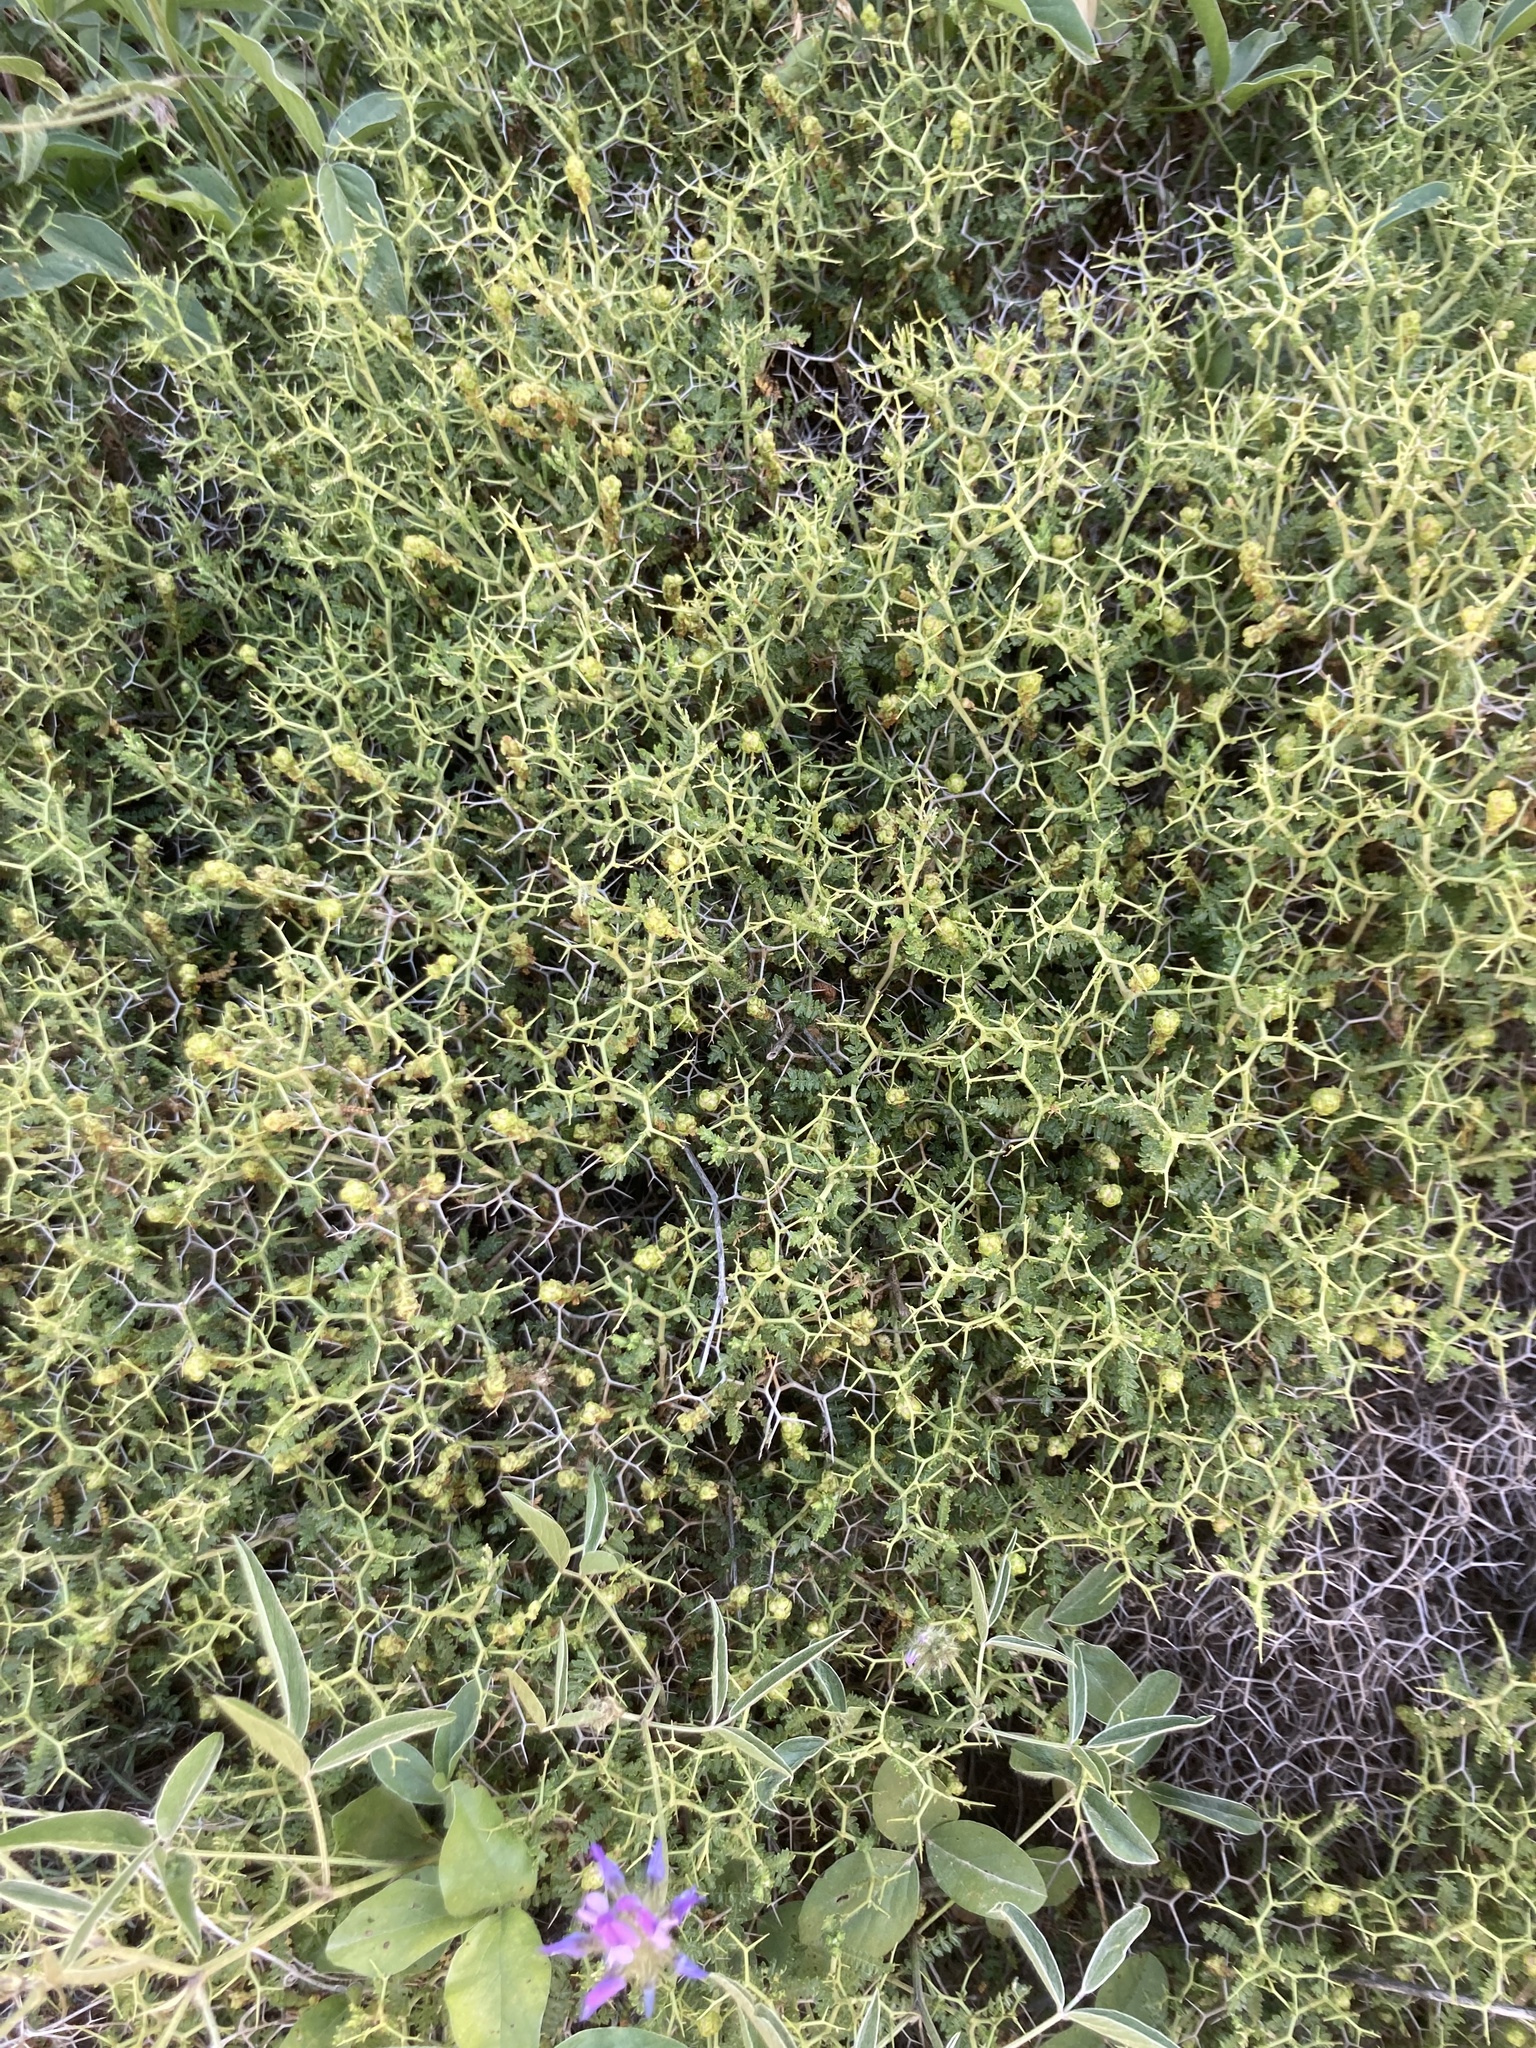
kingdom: Plantae
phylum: Tracheophyta
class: Magnoliopsida
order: Rosales
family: Rosaceae
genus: Sarcopoterium
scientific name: Sarcopoterium spinosum
